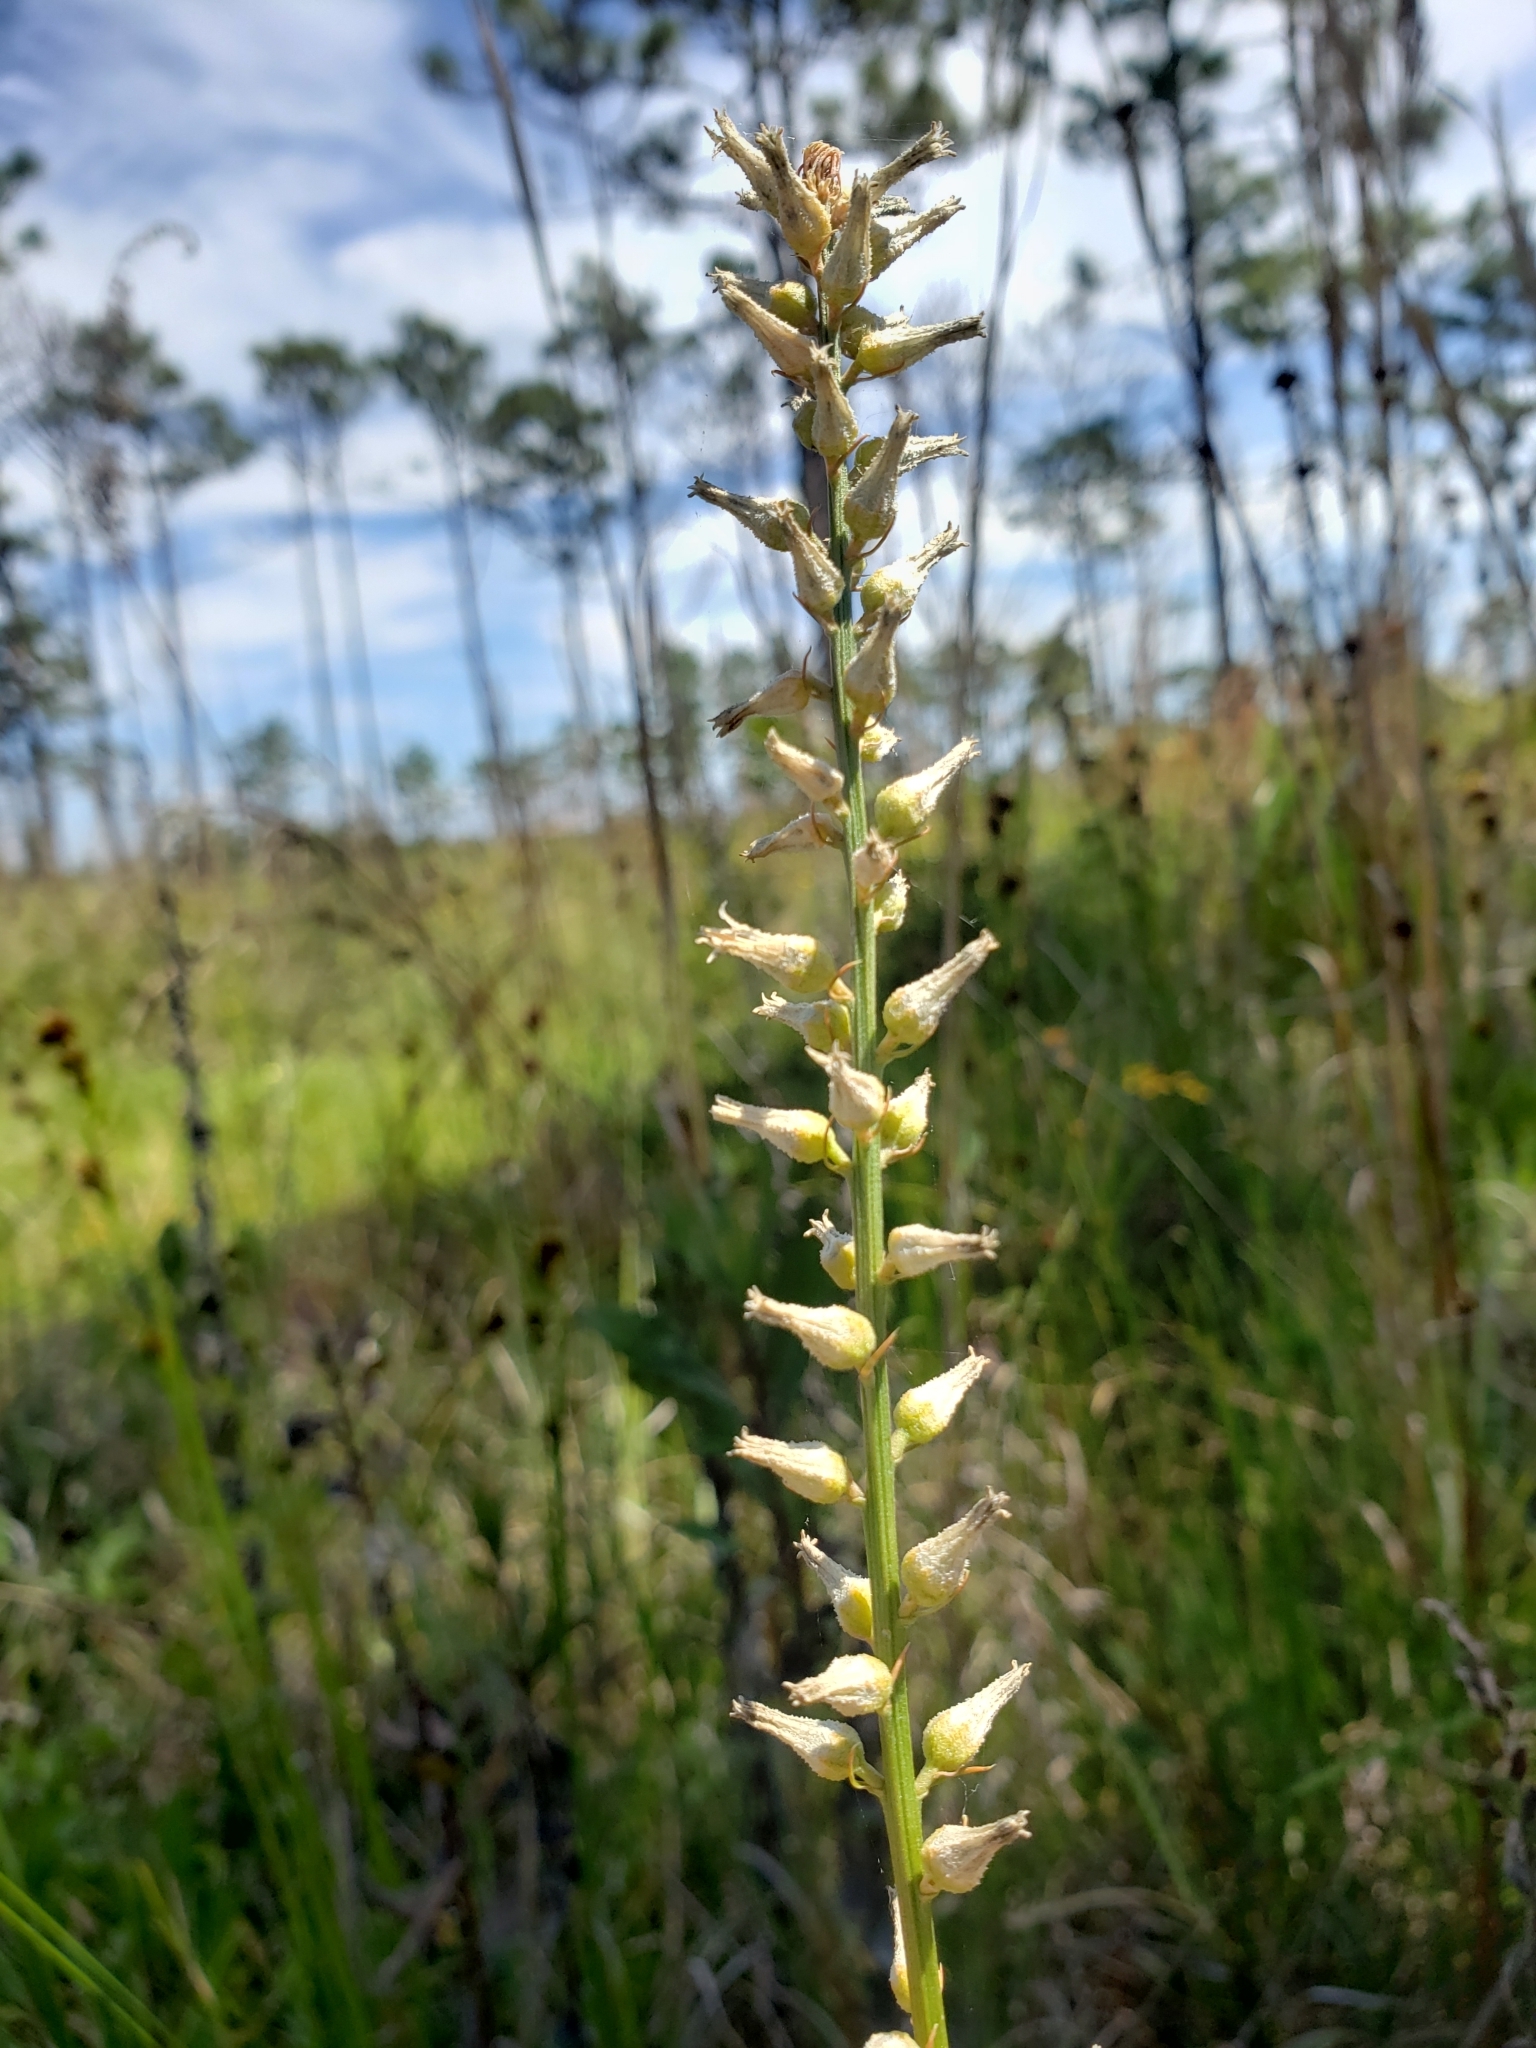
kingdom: Plantae
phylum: Tracheophyta
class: Liliopsida
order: Dioscoreales
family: Nartheciaceae
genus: Aletris
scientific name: Aletris lutea
